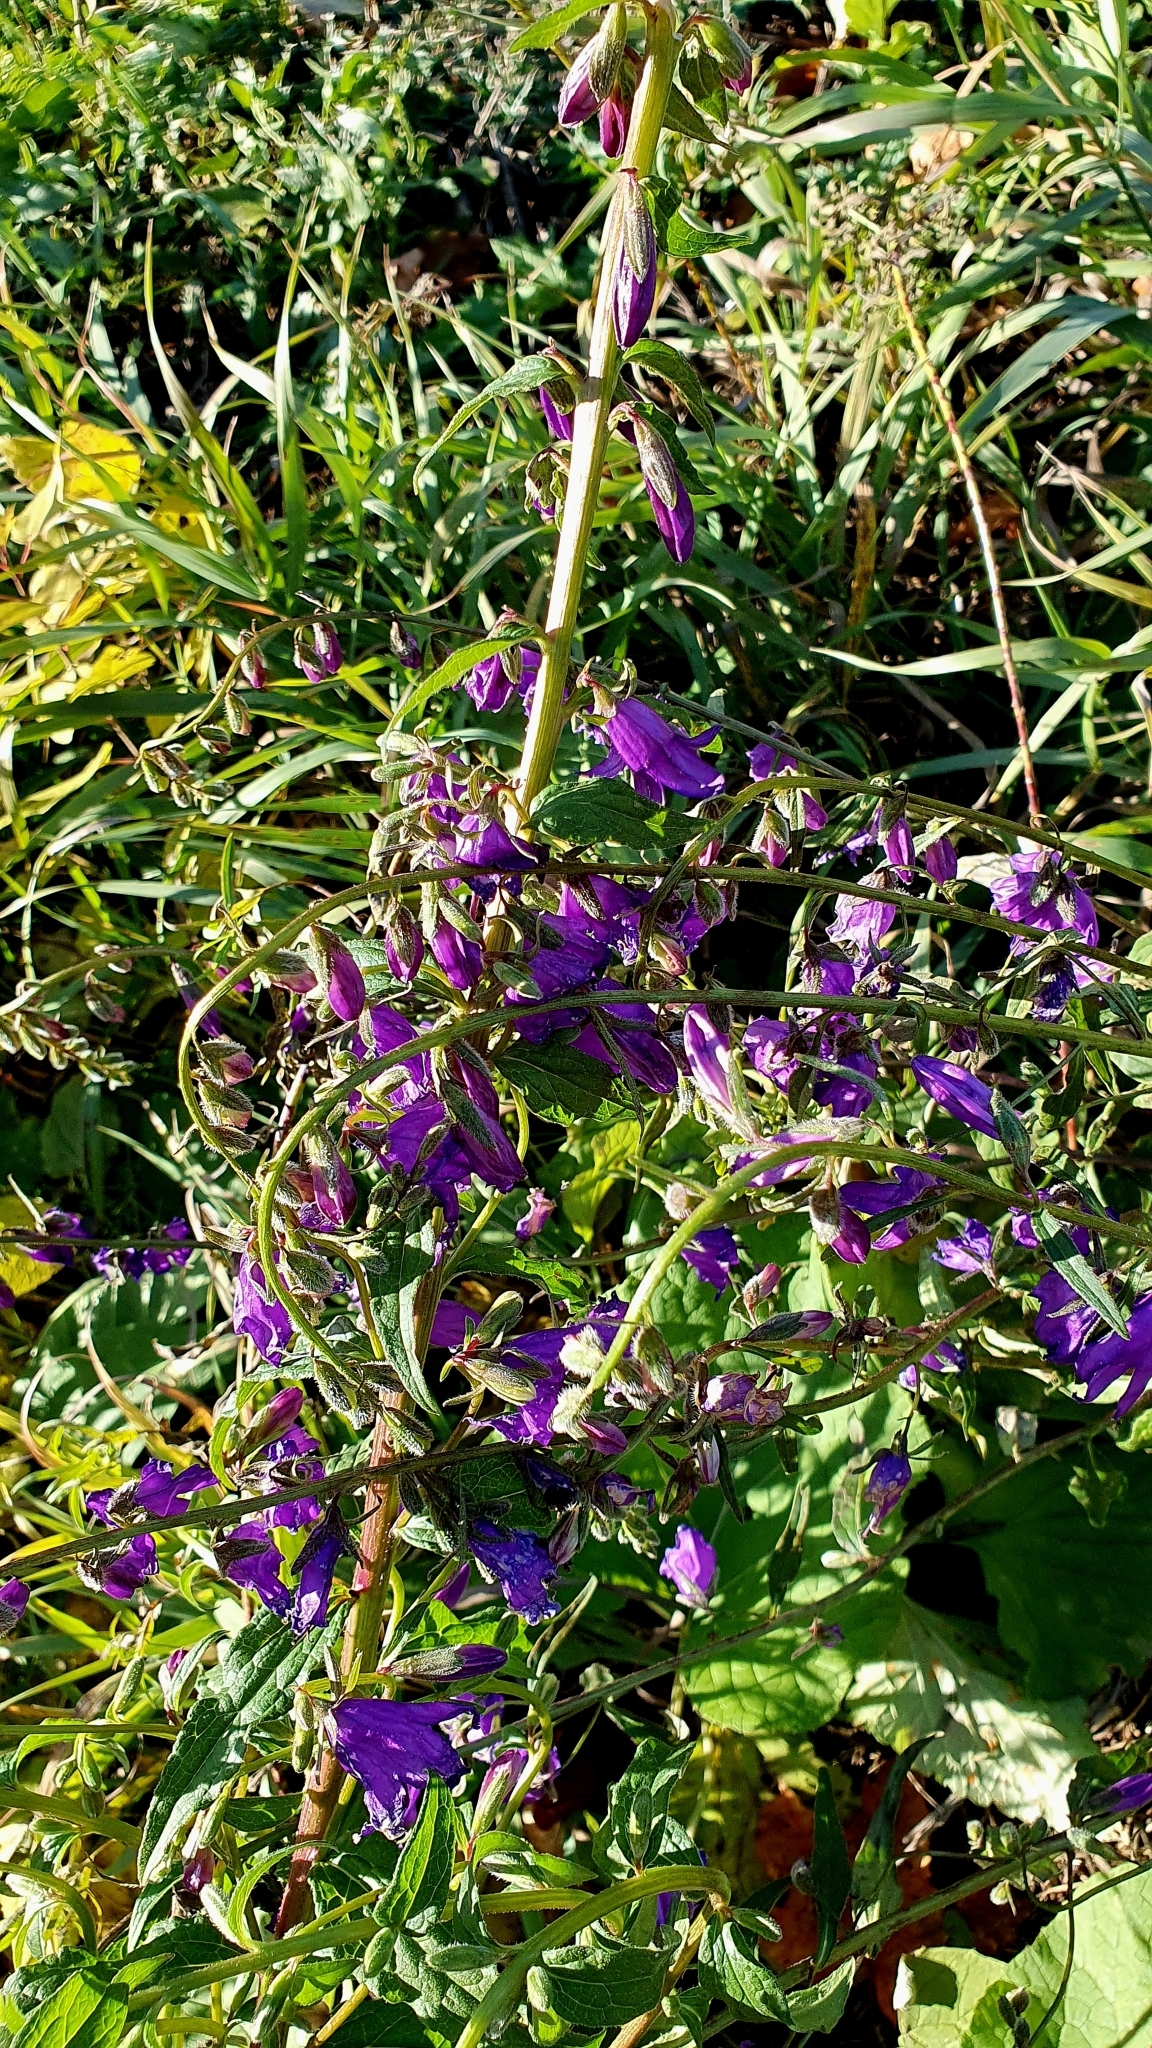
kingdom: Plantae
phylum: Tracheophyta
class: Magnoliopsida
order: Asterales
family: Campanulaceae
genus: Campanula
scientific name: Campanula rapunculoides
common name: Creeping bellflower
